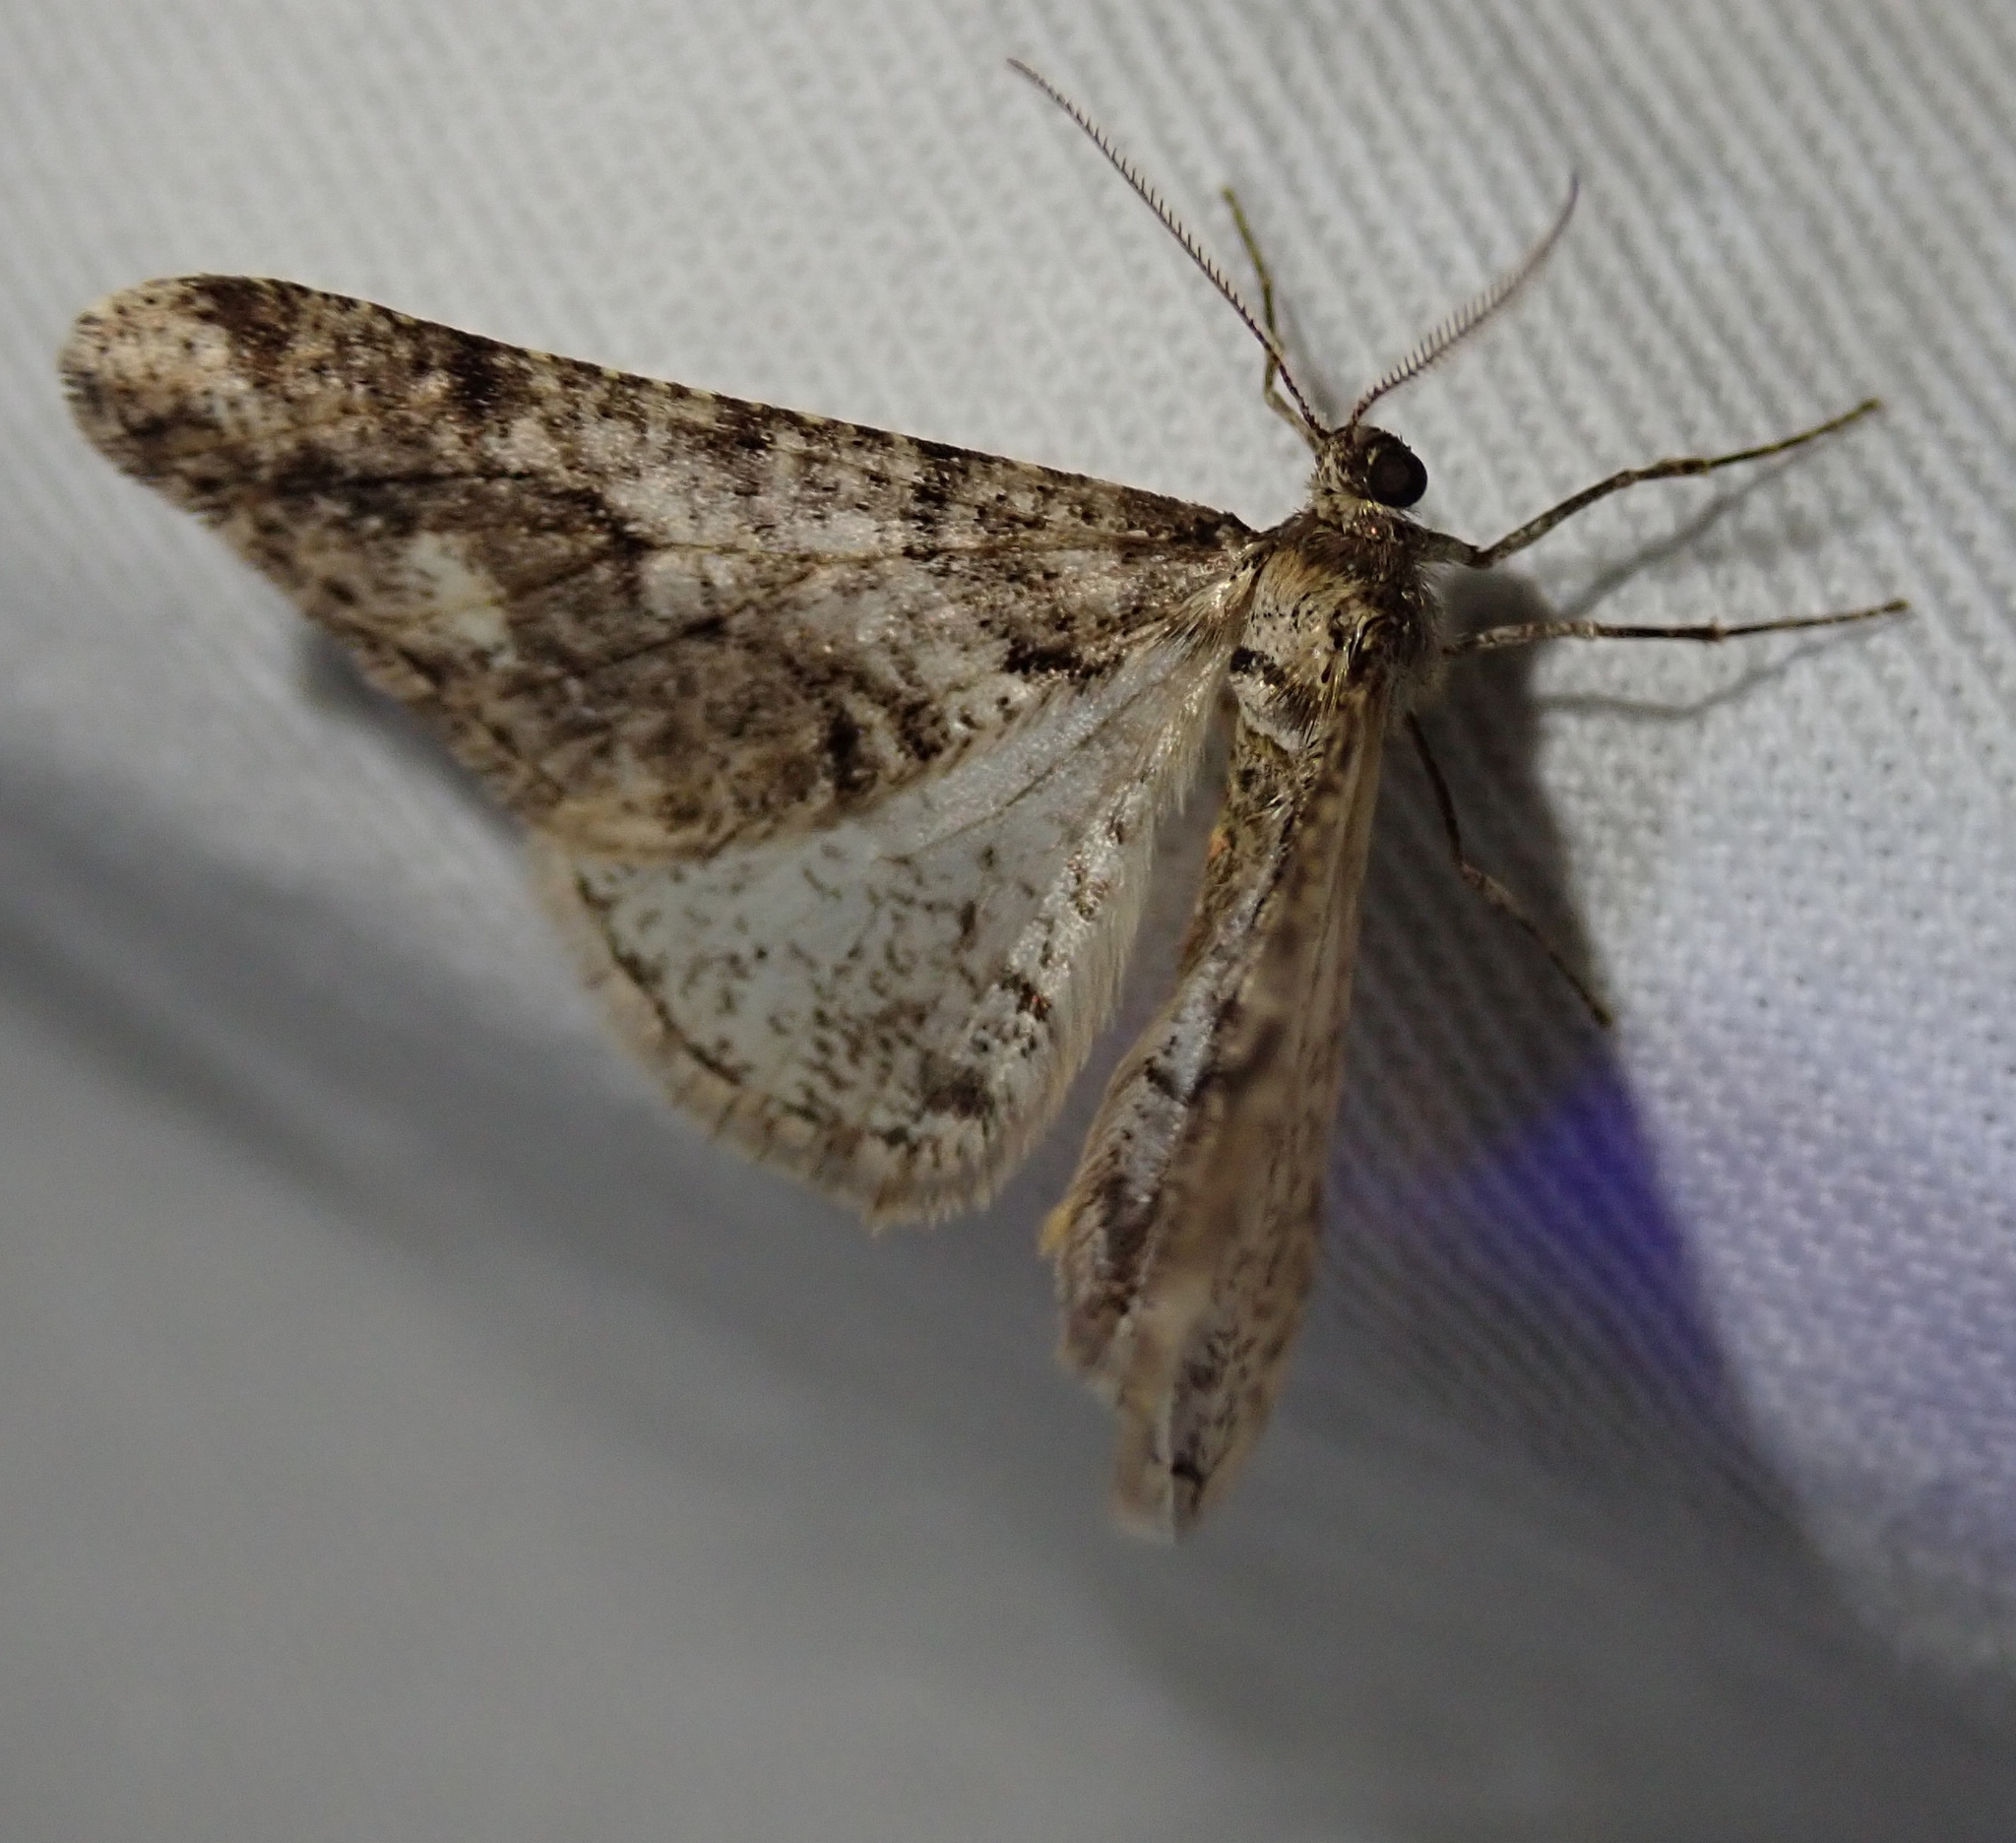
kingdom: Animalia
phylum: Arthropoda
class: Insecta
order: Lepidoptera
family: Geometridae
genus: Agriopis
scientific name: Agriopis leucophaearia
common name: Spring usher
